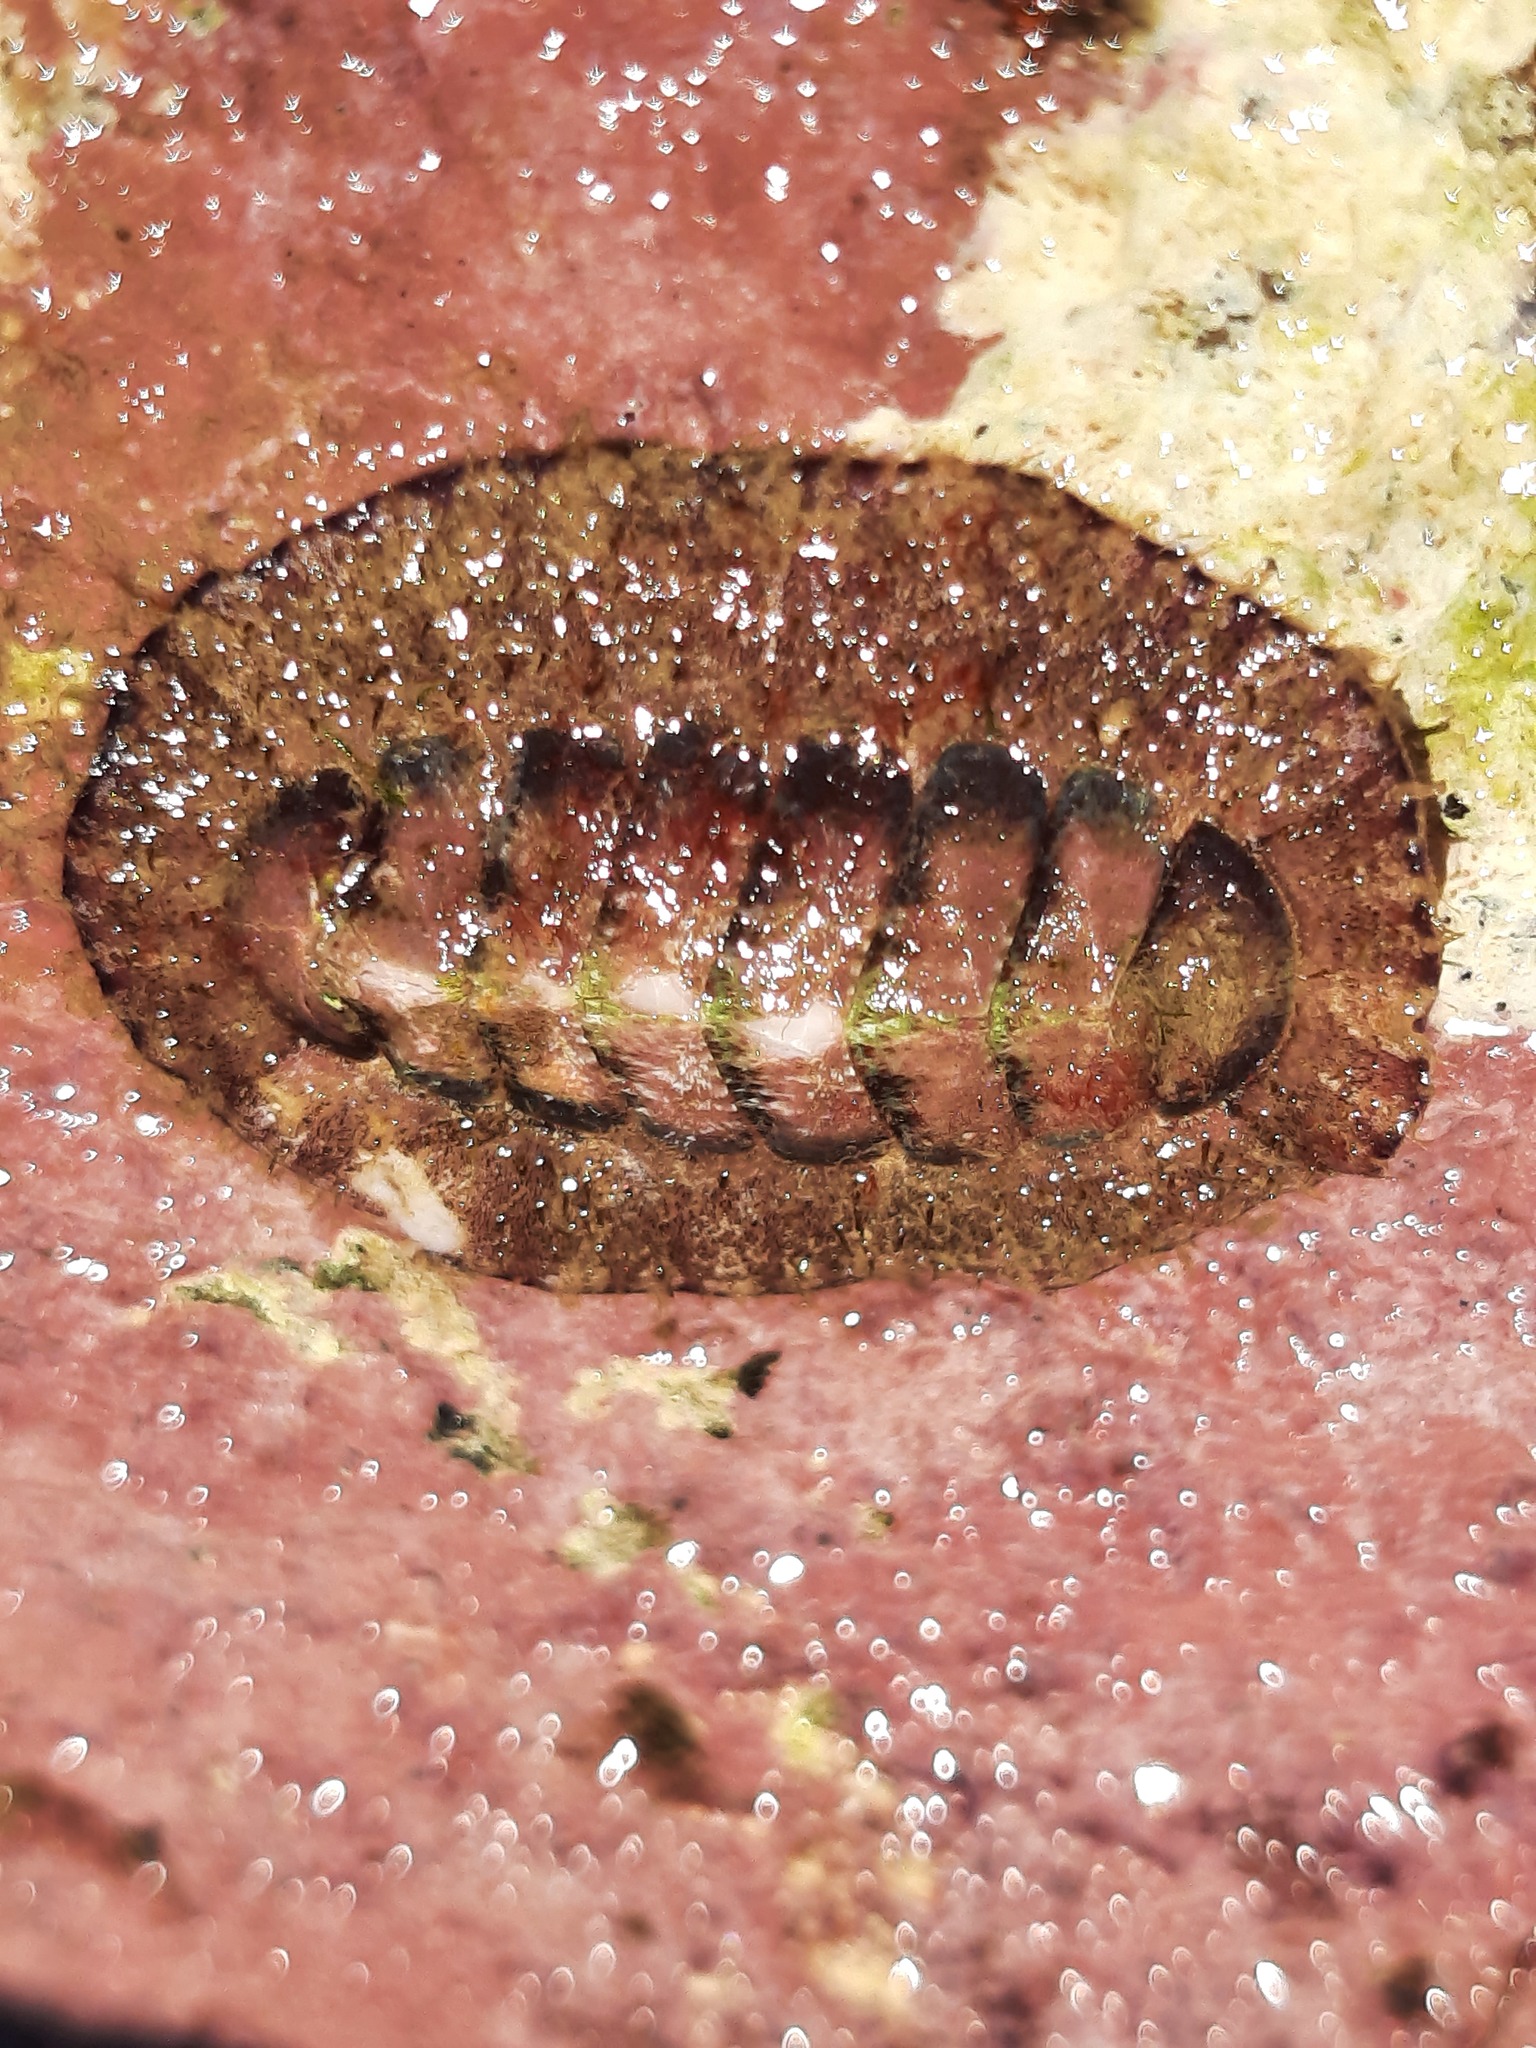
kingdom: Animalia
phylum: Mollusca
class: Polyplacophora
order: Callochitonida
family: Callochitonidae
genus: Eudoxochiton
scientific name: Eudoxochiton nobilis
